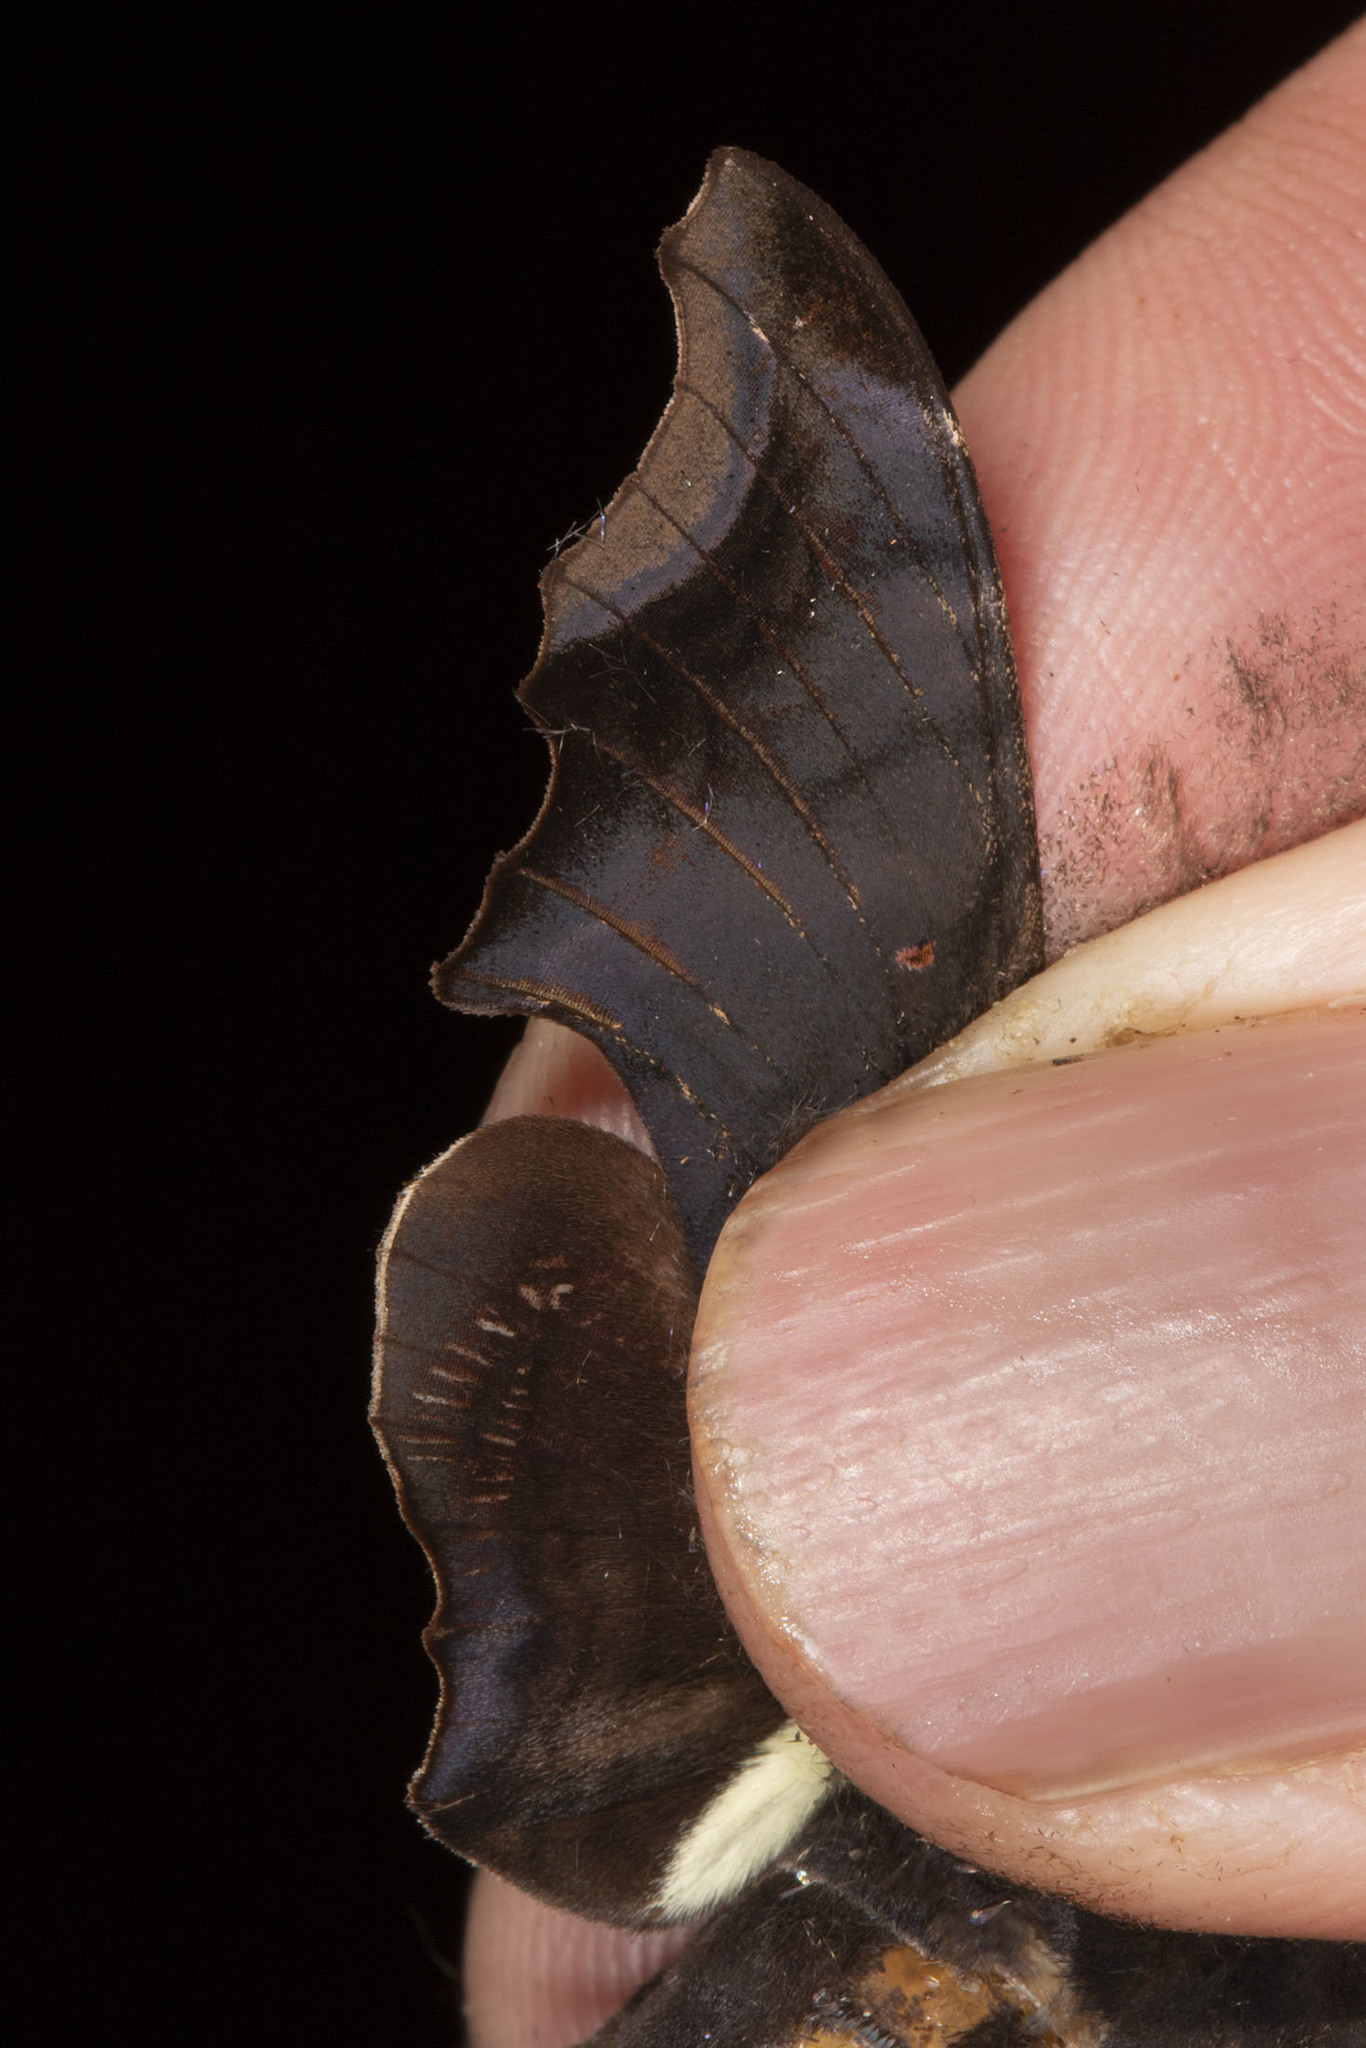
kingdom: Animalia
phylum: Arthropoda
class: Insecta
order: Lepidoptera
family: Sphingidae
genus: Enyo
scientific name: Enyo ocypete
